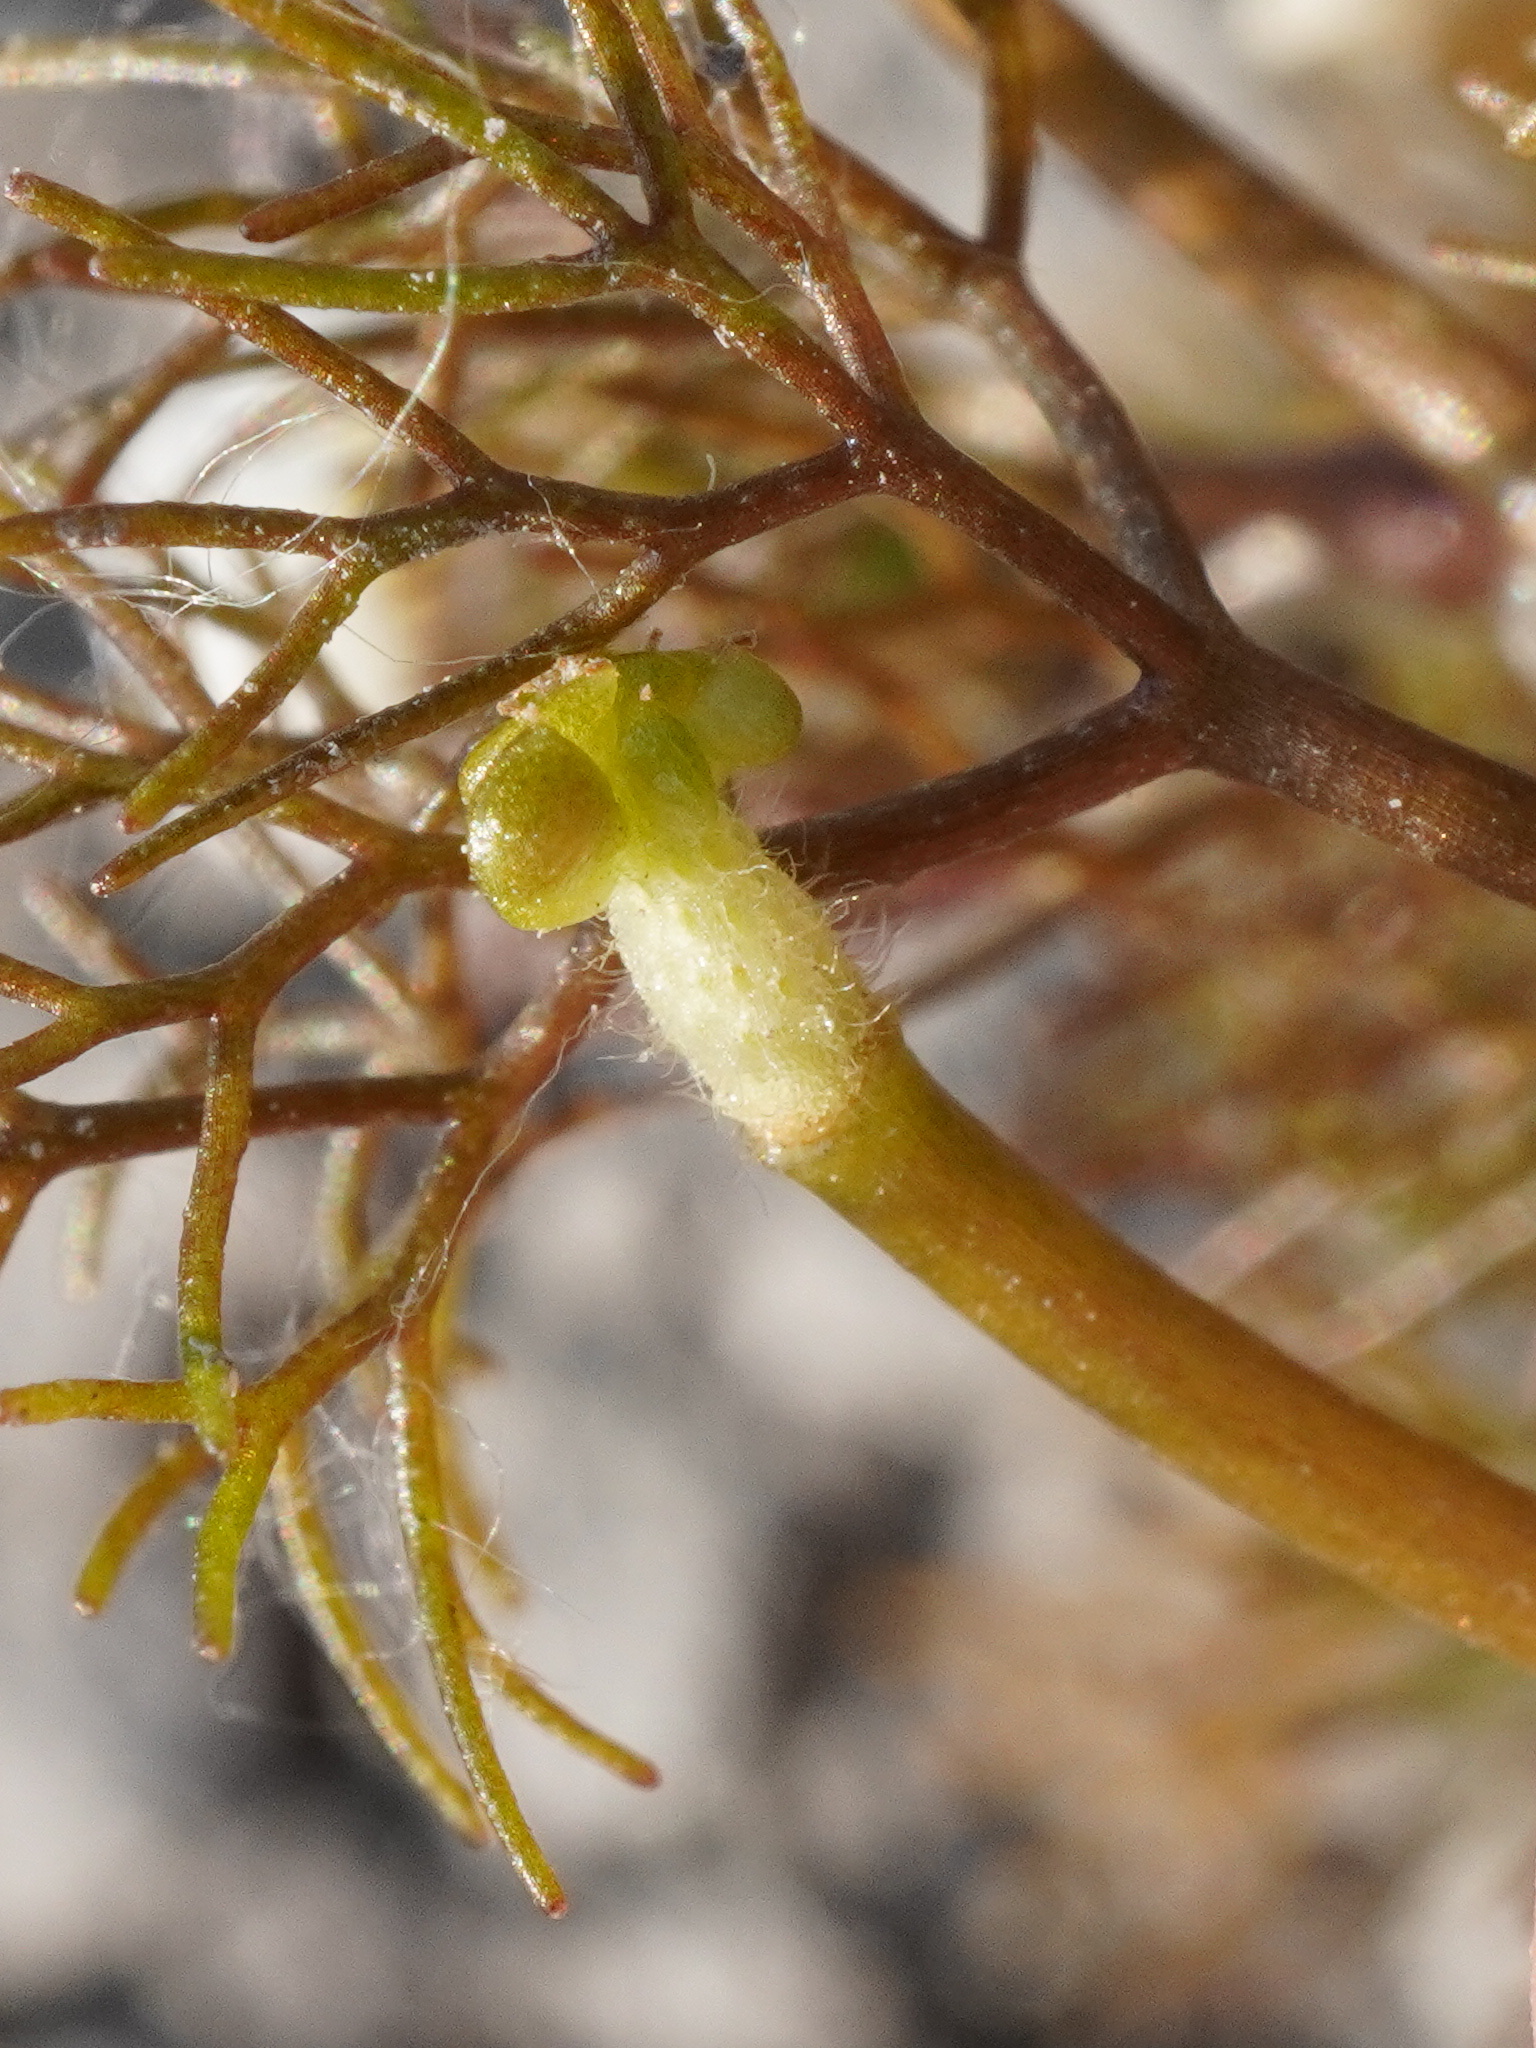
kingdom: Plantae
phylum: Tracheophyta
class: Magnoliopsida
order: Ranunculales
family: Ranunculaceae
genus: Ranunculus
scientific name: Ranunculus rionii
